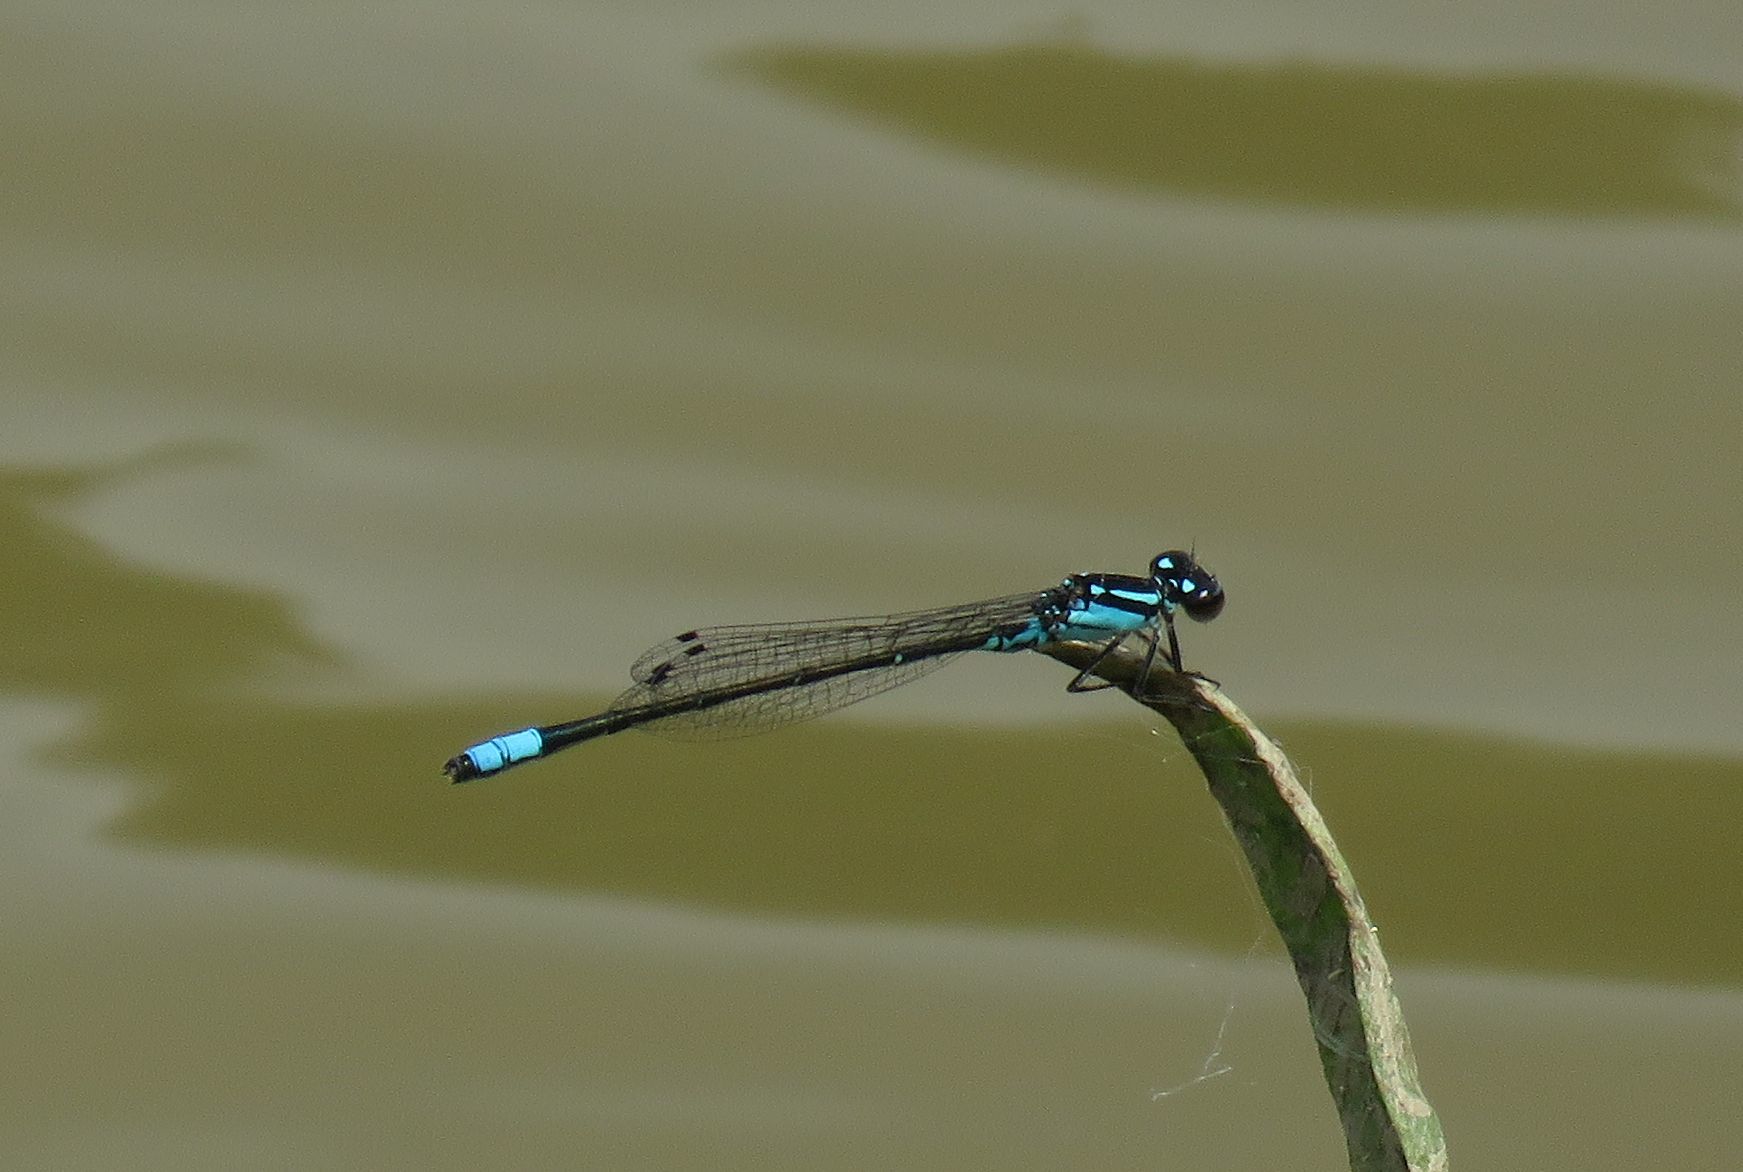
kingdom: Animalia
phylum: Arthropoda
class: Insecta
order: Odonata
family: Coenagrionidae
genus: Enallagma
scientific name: Enallagma geminatum
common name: Skimming bluet
